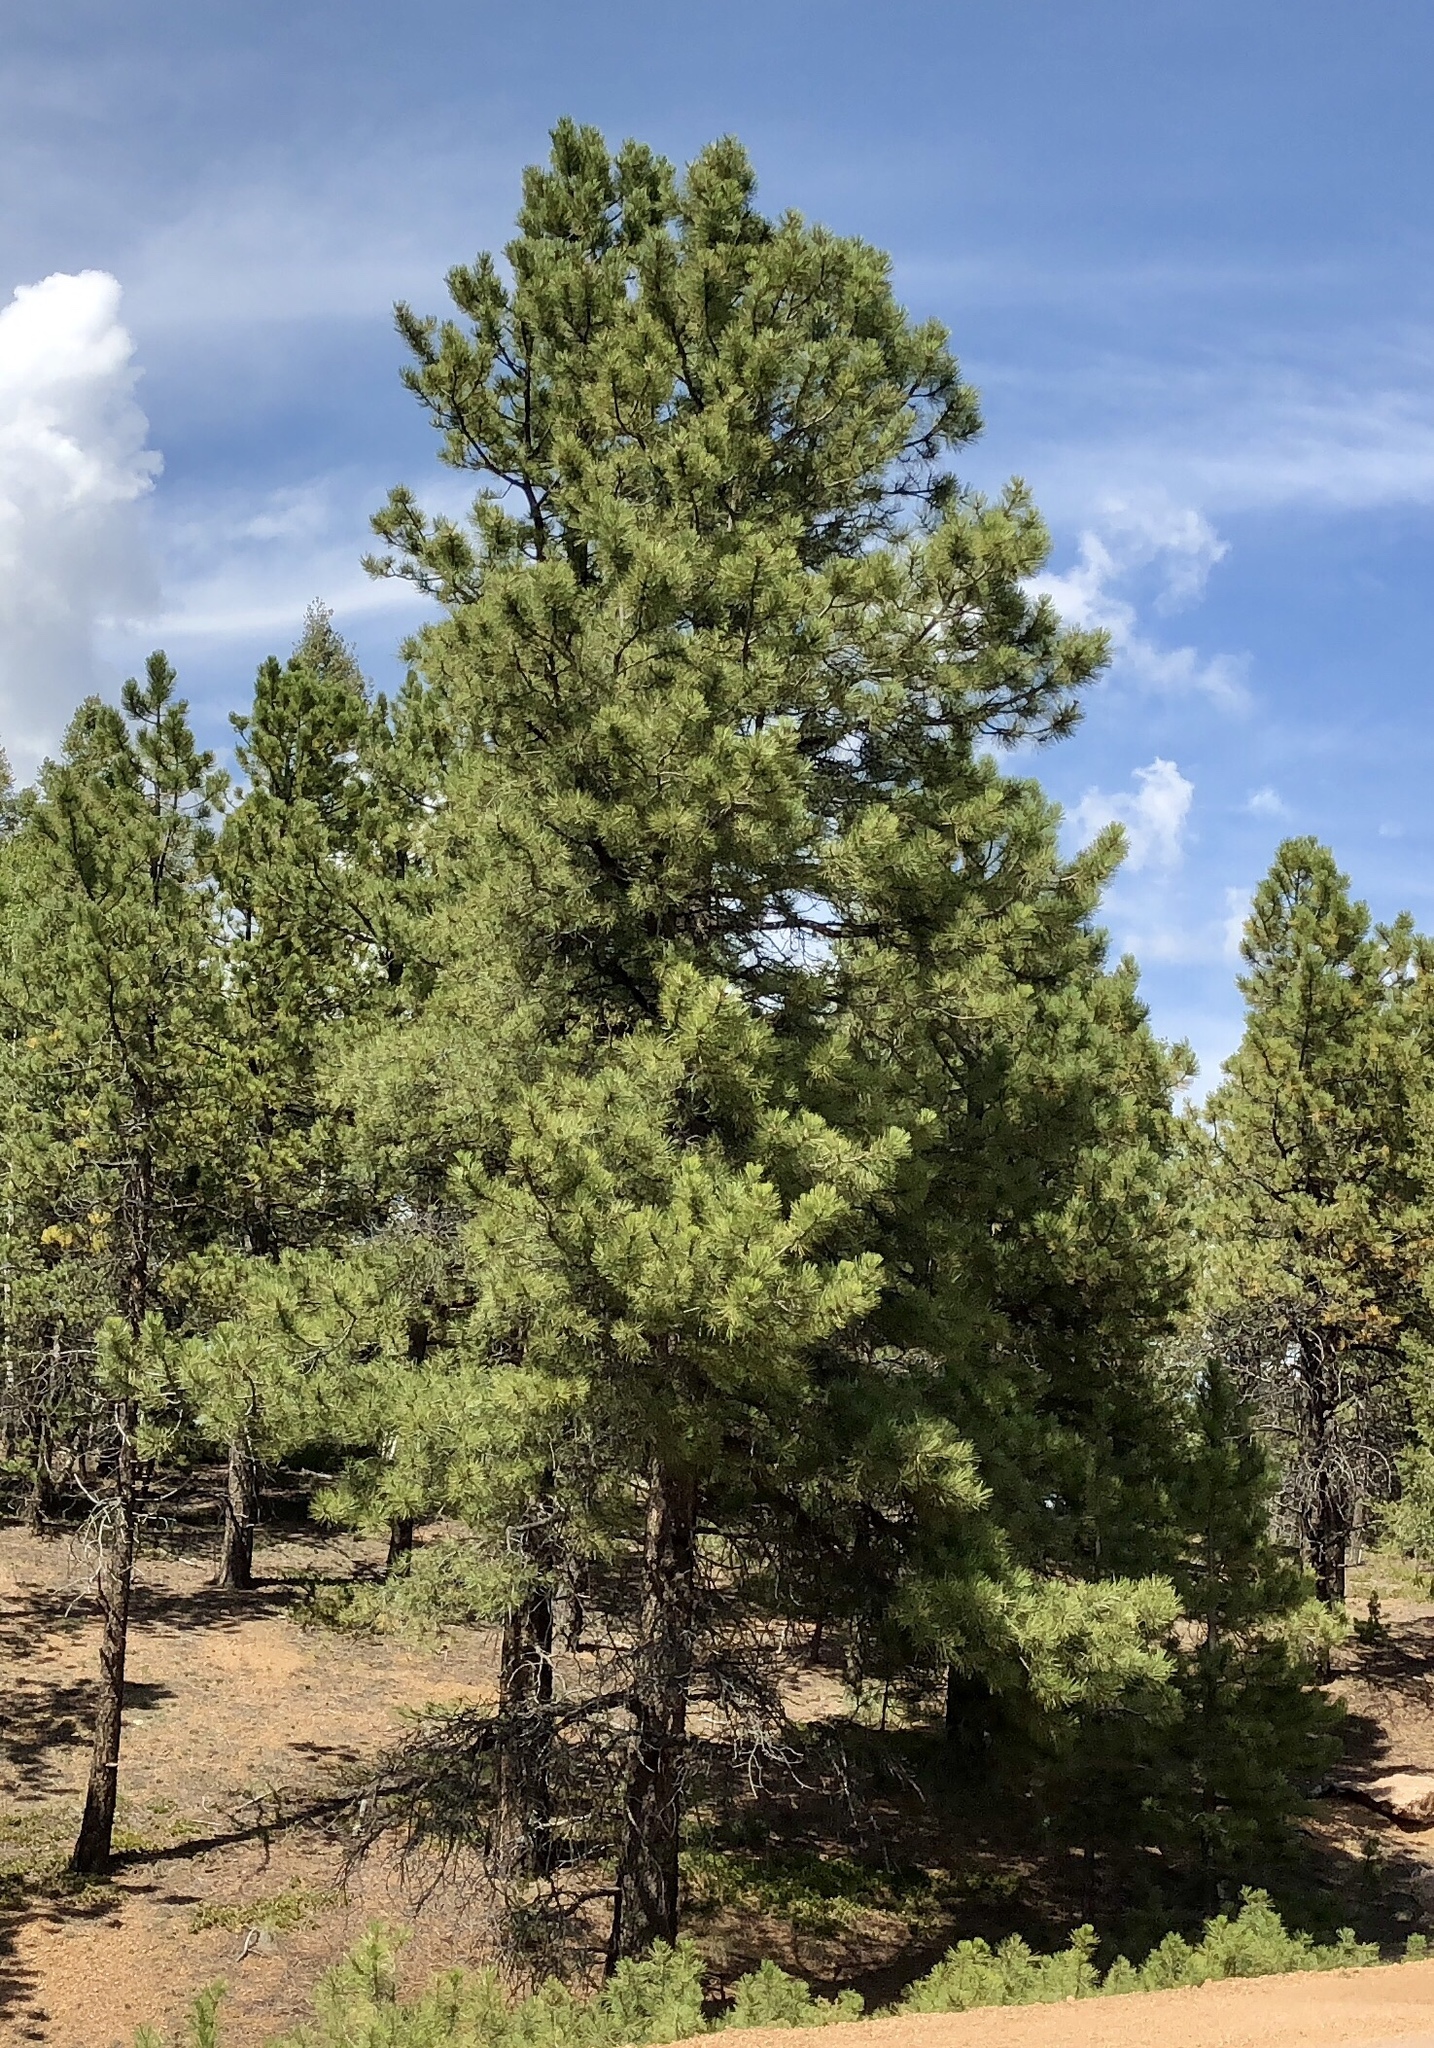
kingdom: Plantae
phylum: Tracheophyta
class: Pinopsida
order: Pinales
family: Pinaceae
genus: Pinus
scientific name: Pinus ponderosa
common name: Western yellow-pine
